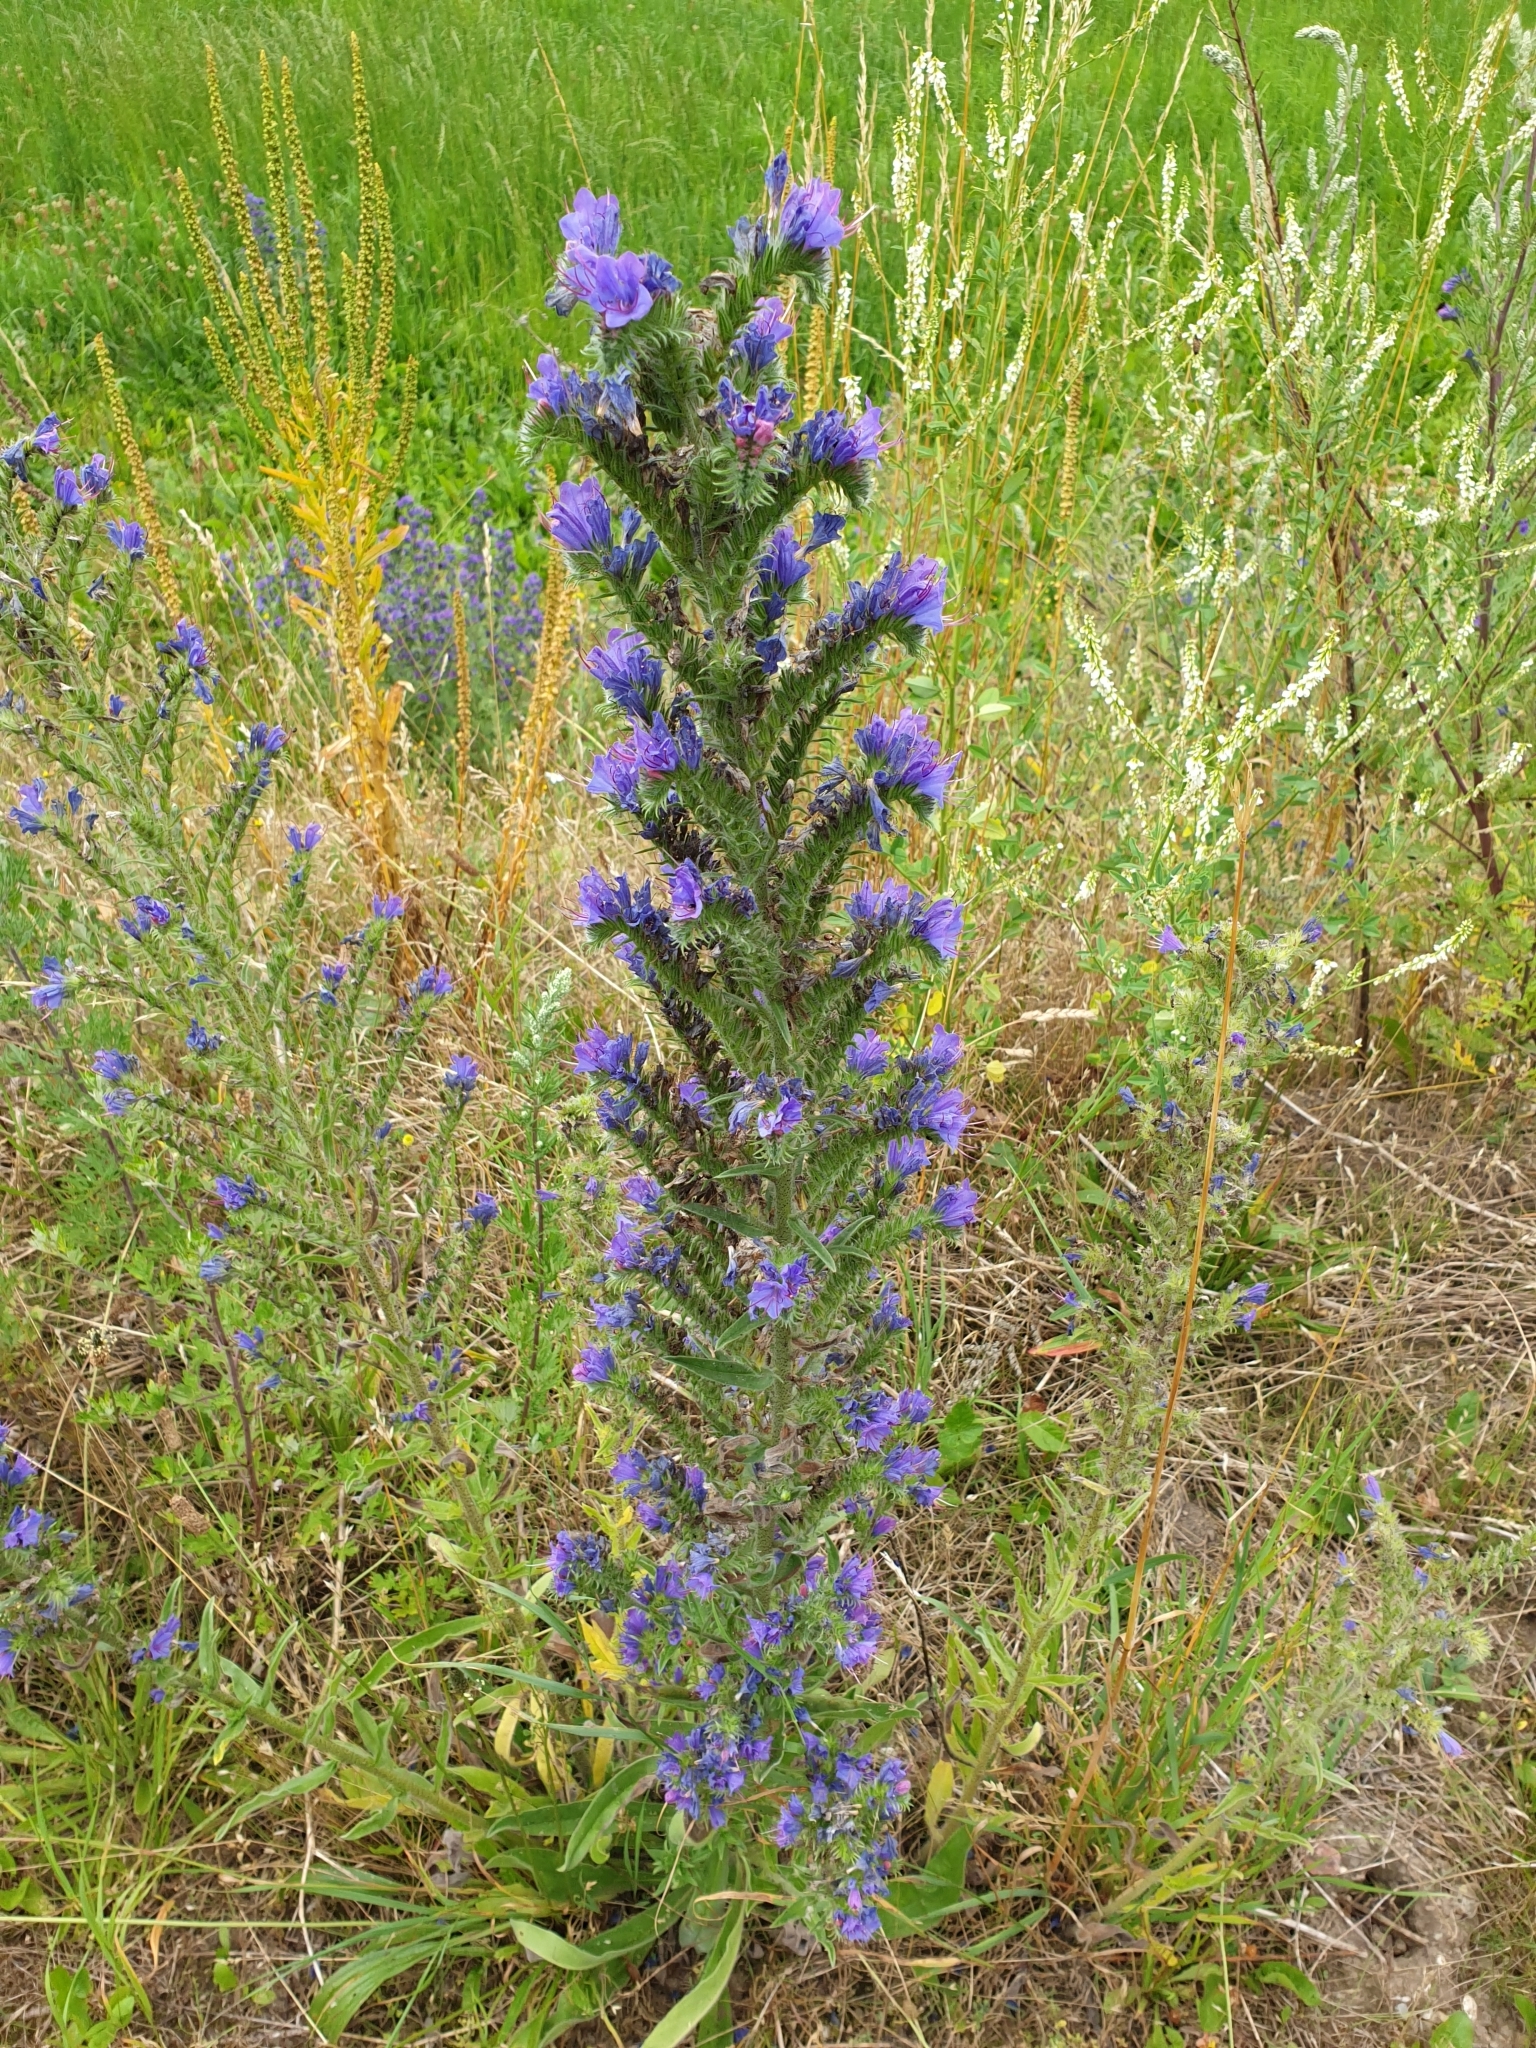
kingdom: Plantae
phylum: Tracheophyta
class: Magnoliopsida
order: Boraginales
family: Boraginaceae
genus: Echium
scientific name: Echium vulgare
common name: Common viper's bugloss
